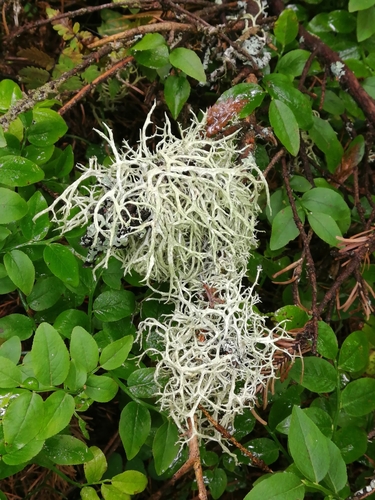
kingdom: Fungi
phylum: Ascomycota
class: Lecanoromycetes
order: Lecanorales
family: Parmeliaceae
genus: Evernia
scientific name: Evernia mesomorpha
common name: Boreal oak moss lichen
